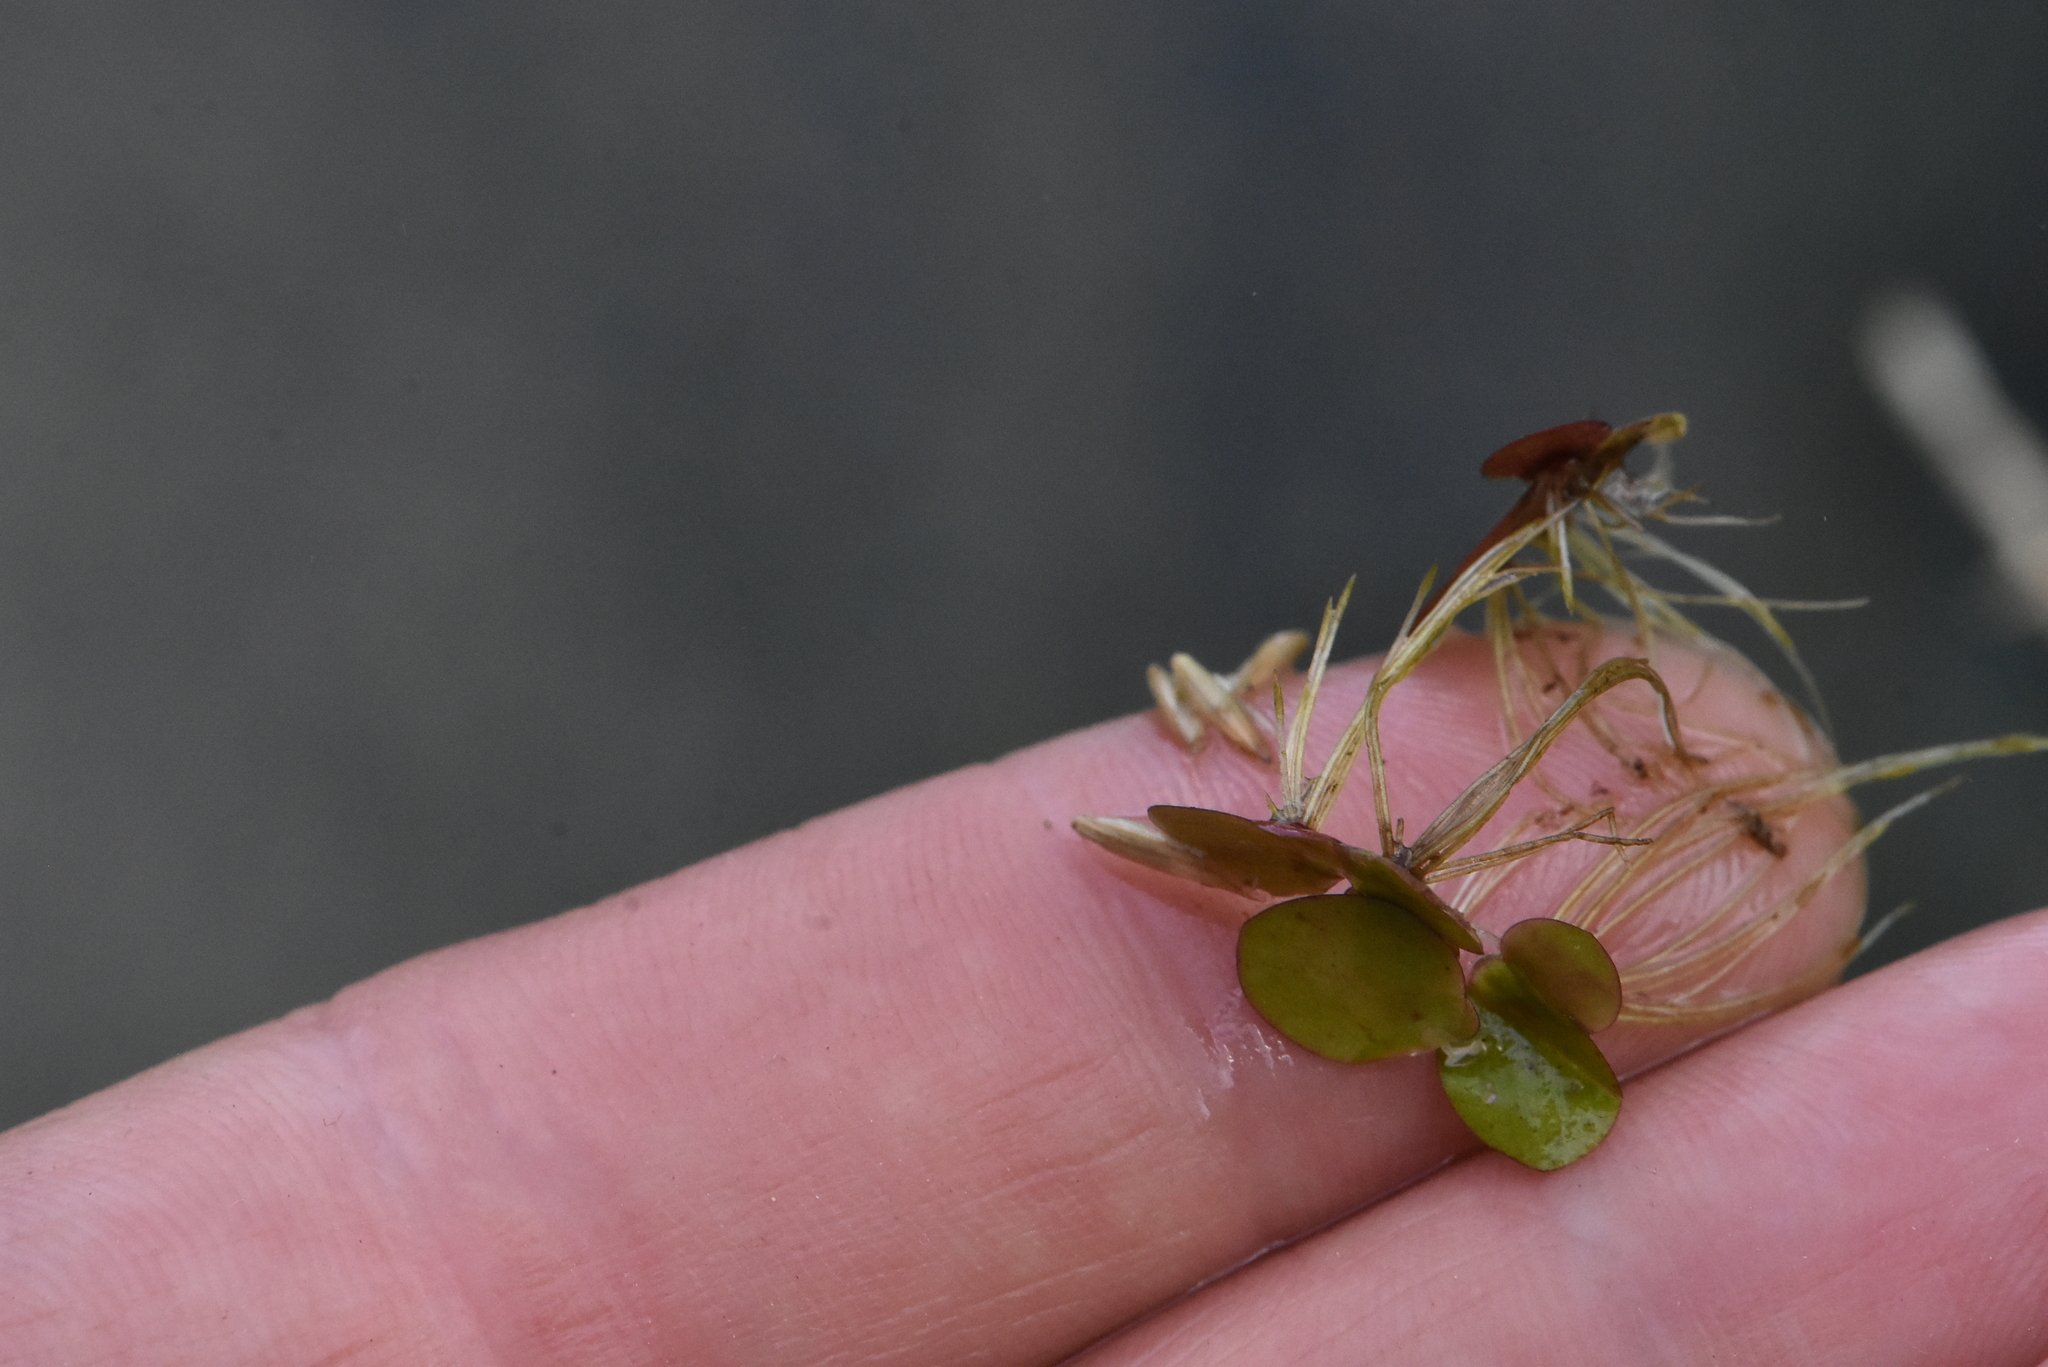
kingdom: Plantae
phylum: Tracheophyta
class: Liliopsida
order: Alismatales
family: Araceae
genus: Spirodela
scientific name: Spirodela polyrhiza
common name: Great duckweed
